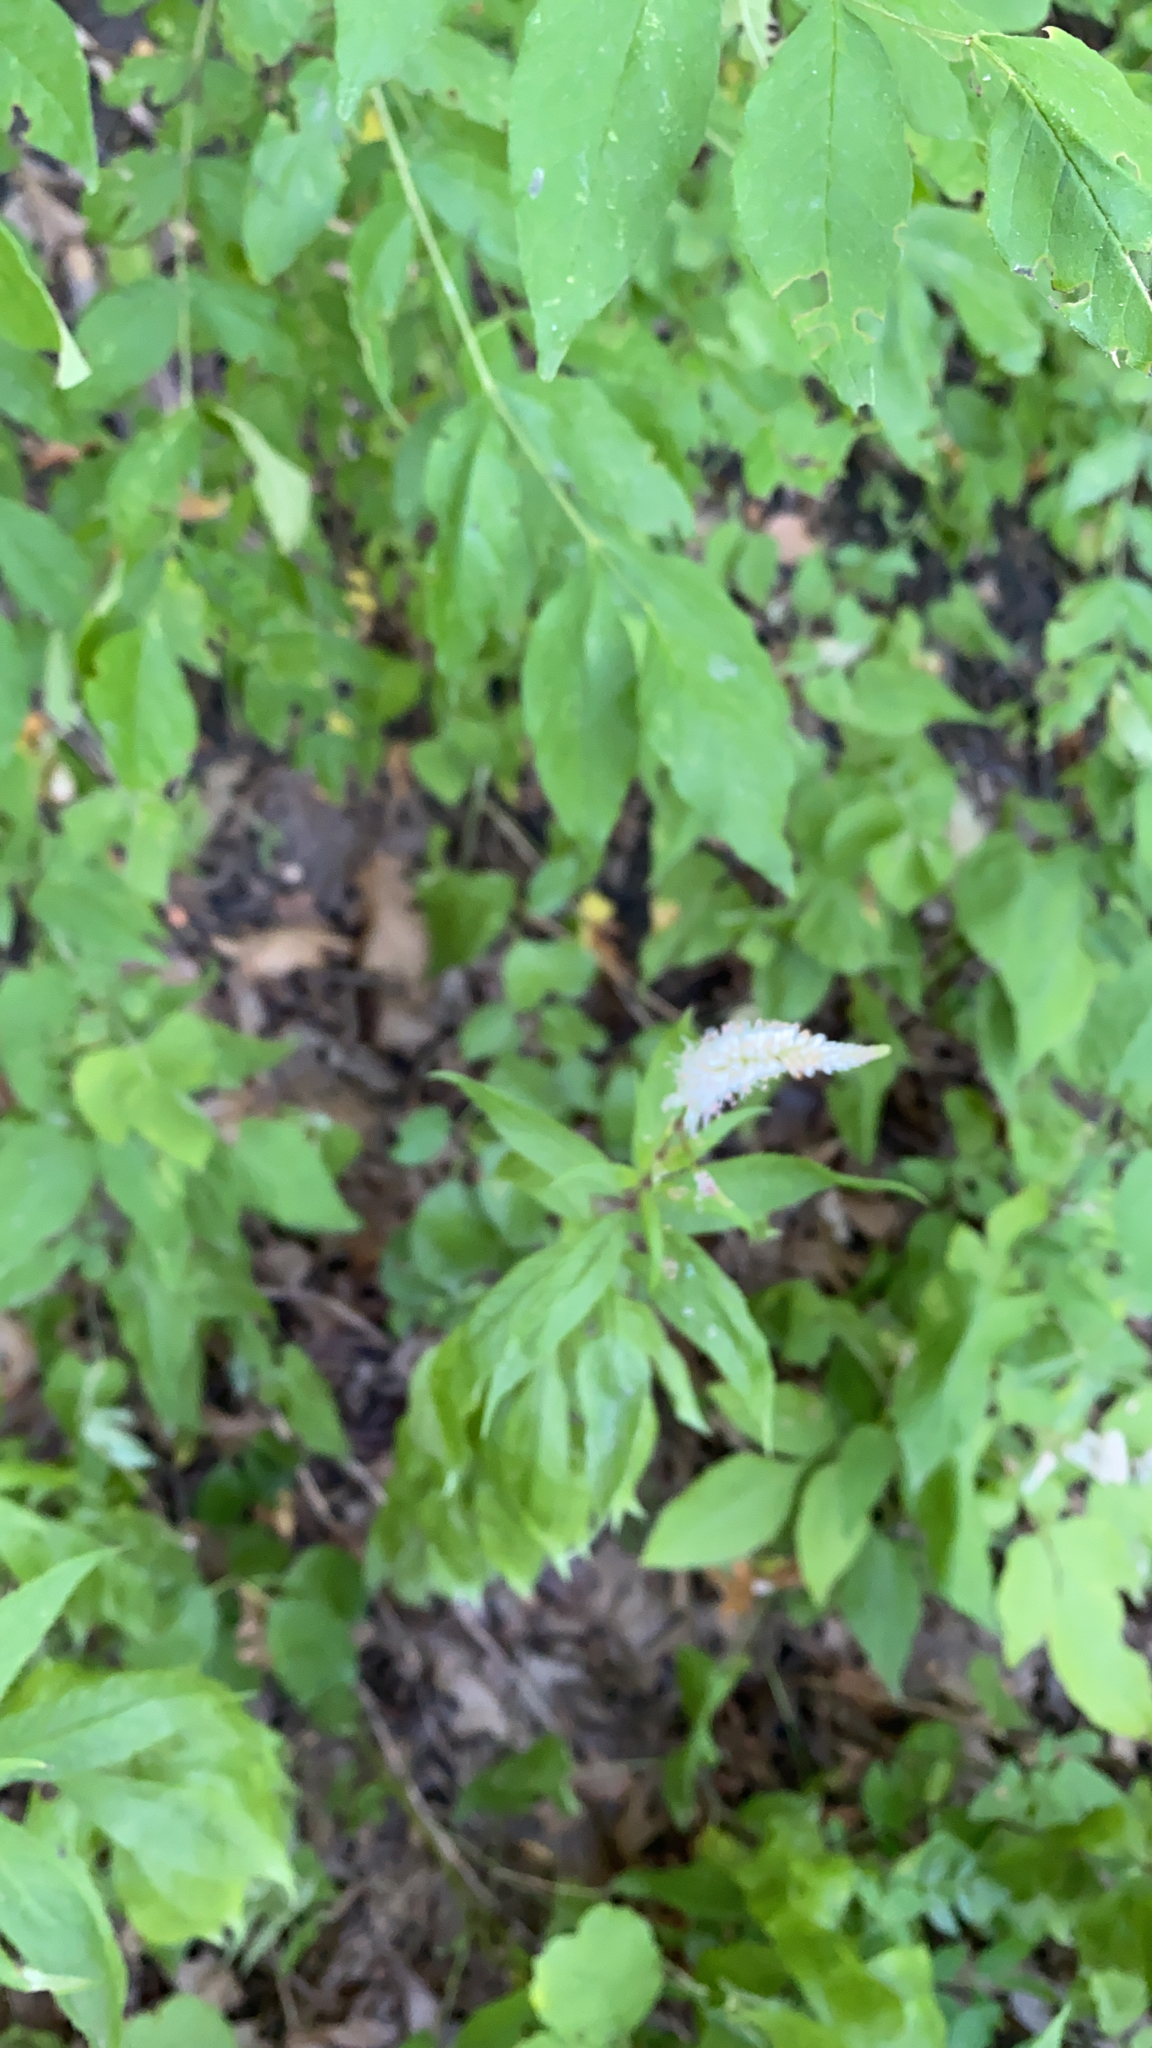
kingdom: Plantae
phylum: Tracheophyta
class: Magnoliopsida
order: Lamiales
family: Plantaginaceae
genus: Veronicastrum
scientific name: Veronicastrum virginicum
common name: Blackroot
